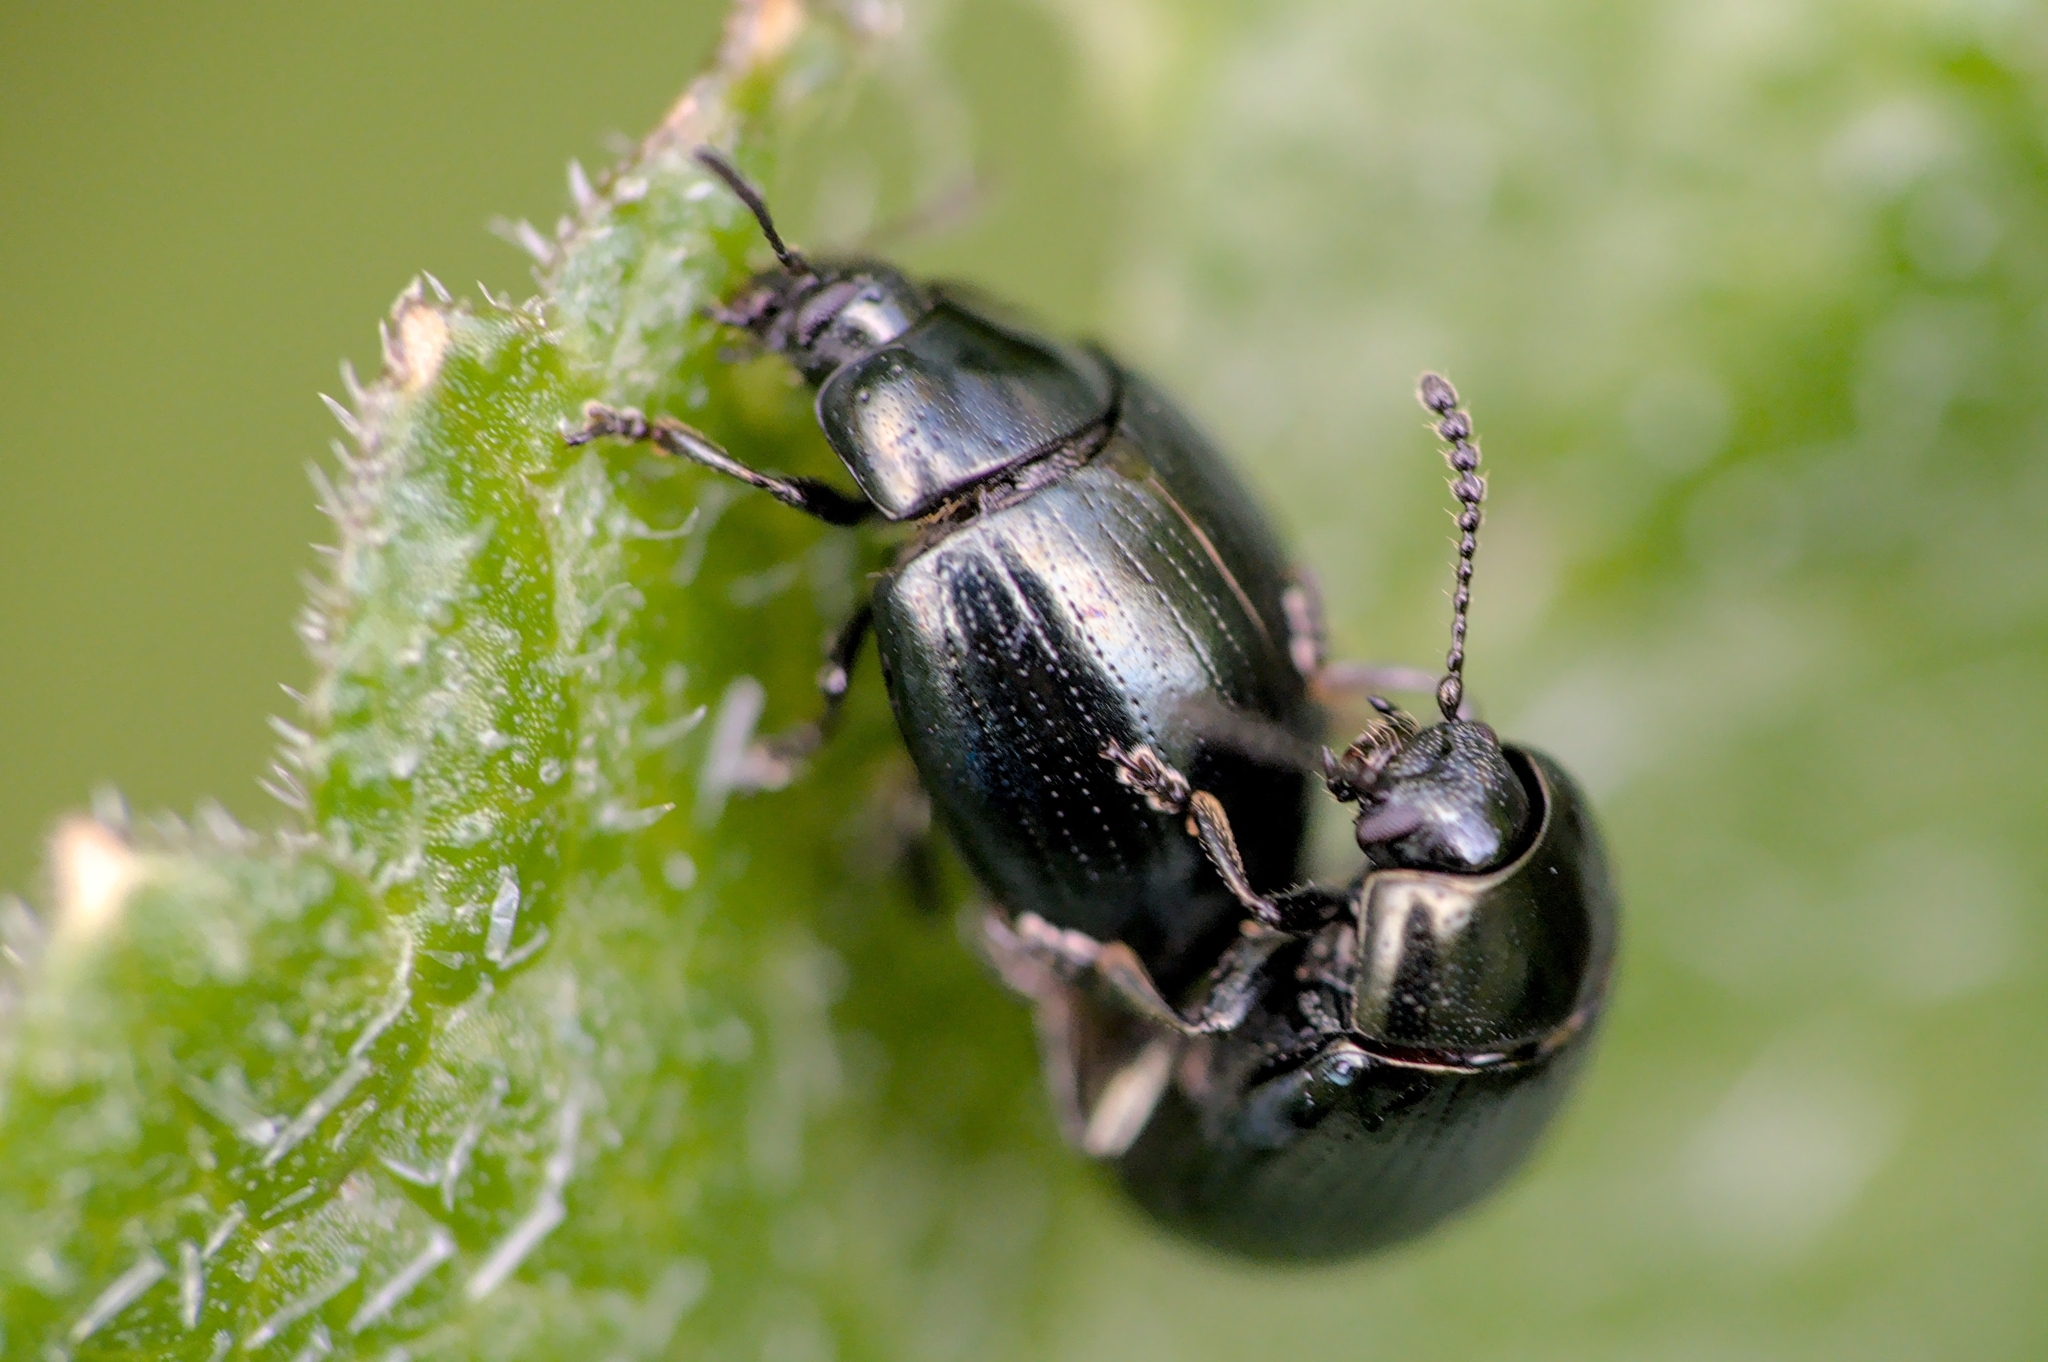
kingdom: Animalia
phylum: Arthropoda
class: Insecta
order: Coleoptera
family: Chrysomelidae
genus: Phaedon
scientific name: Phaedon tumidulus
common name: Celery leaf beetle
